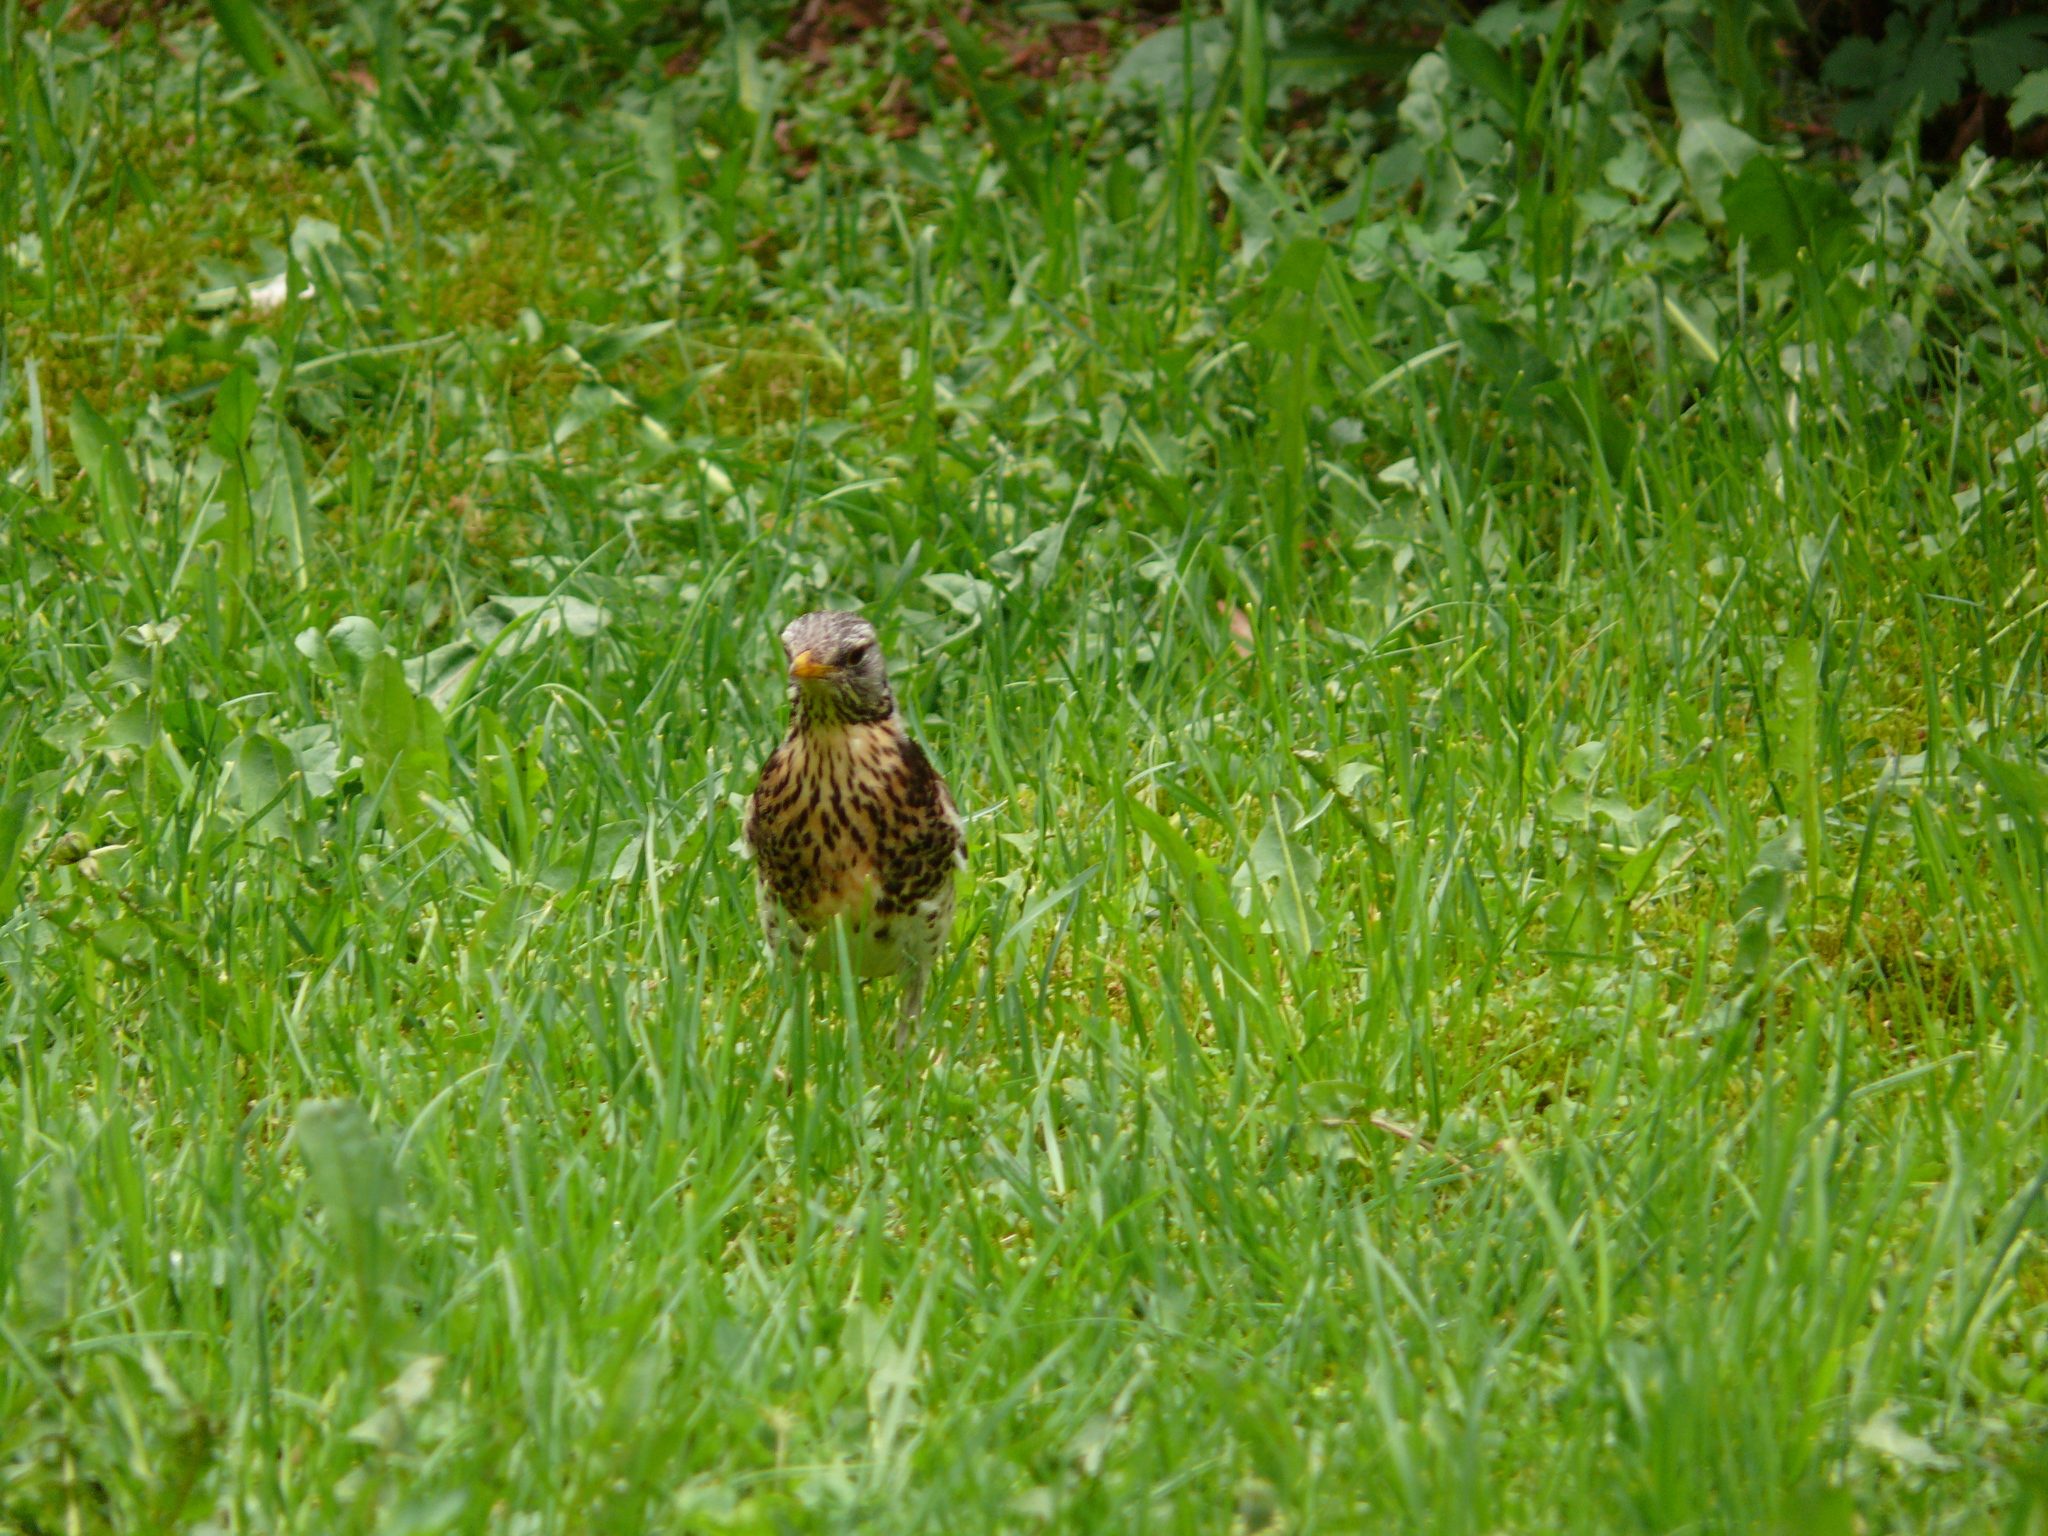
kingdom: Animalia
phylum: Chordata
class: Aves
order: Passeriformes
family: Turdidae
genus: Turdus
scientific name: Turdus pilaris
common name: Fieldfare
